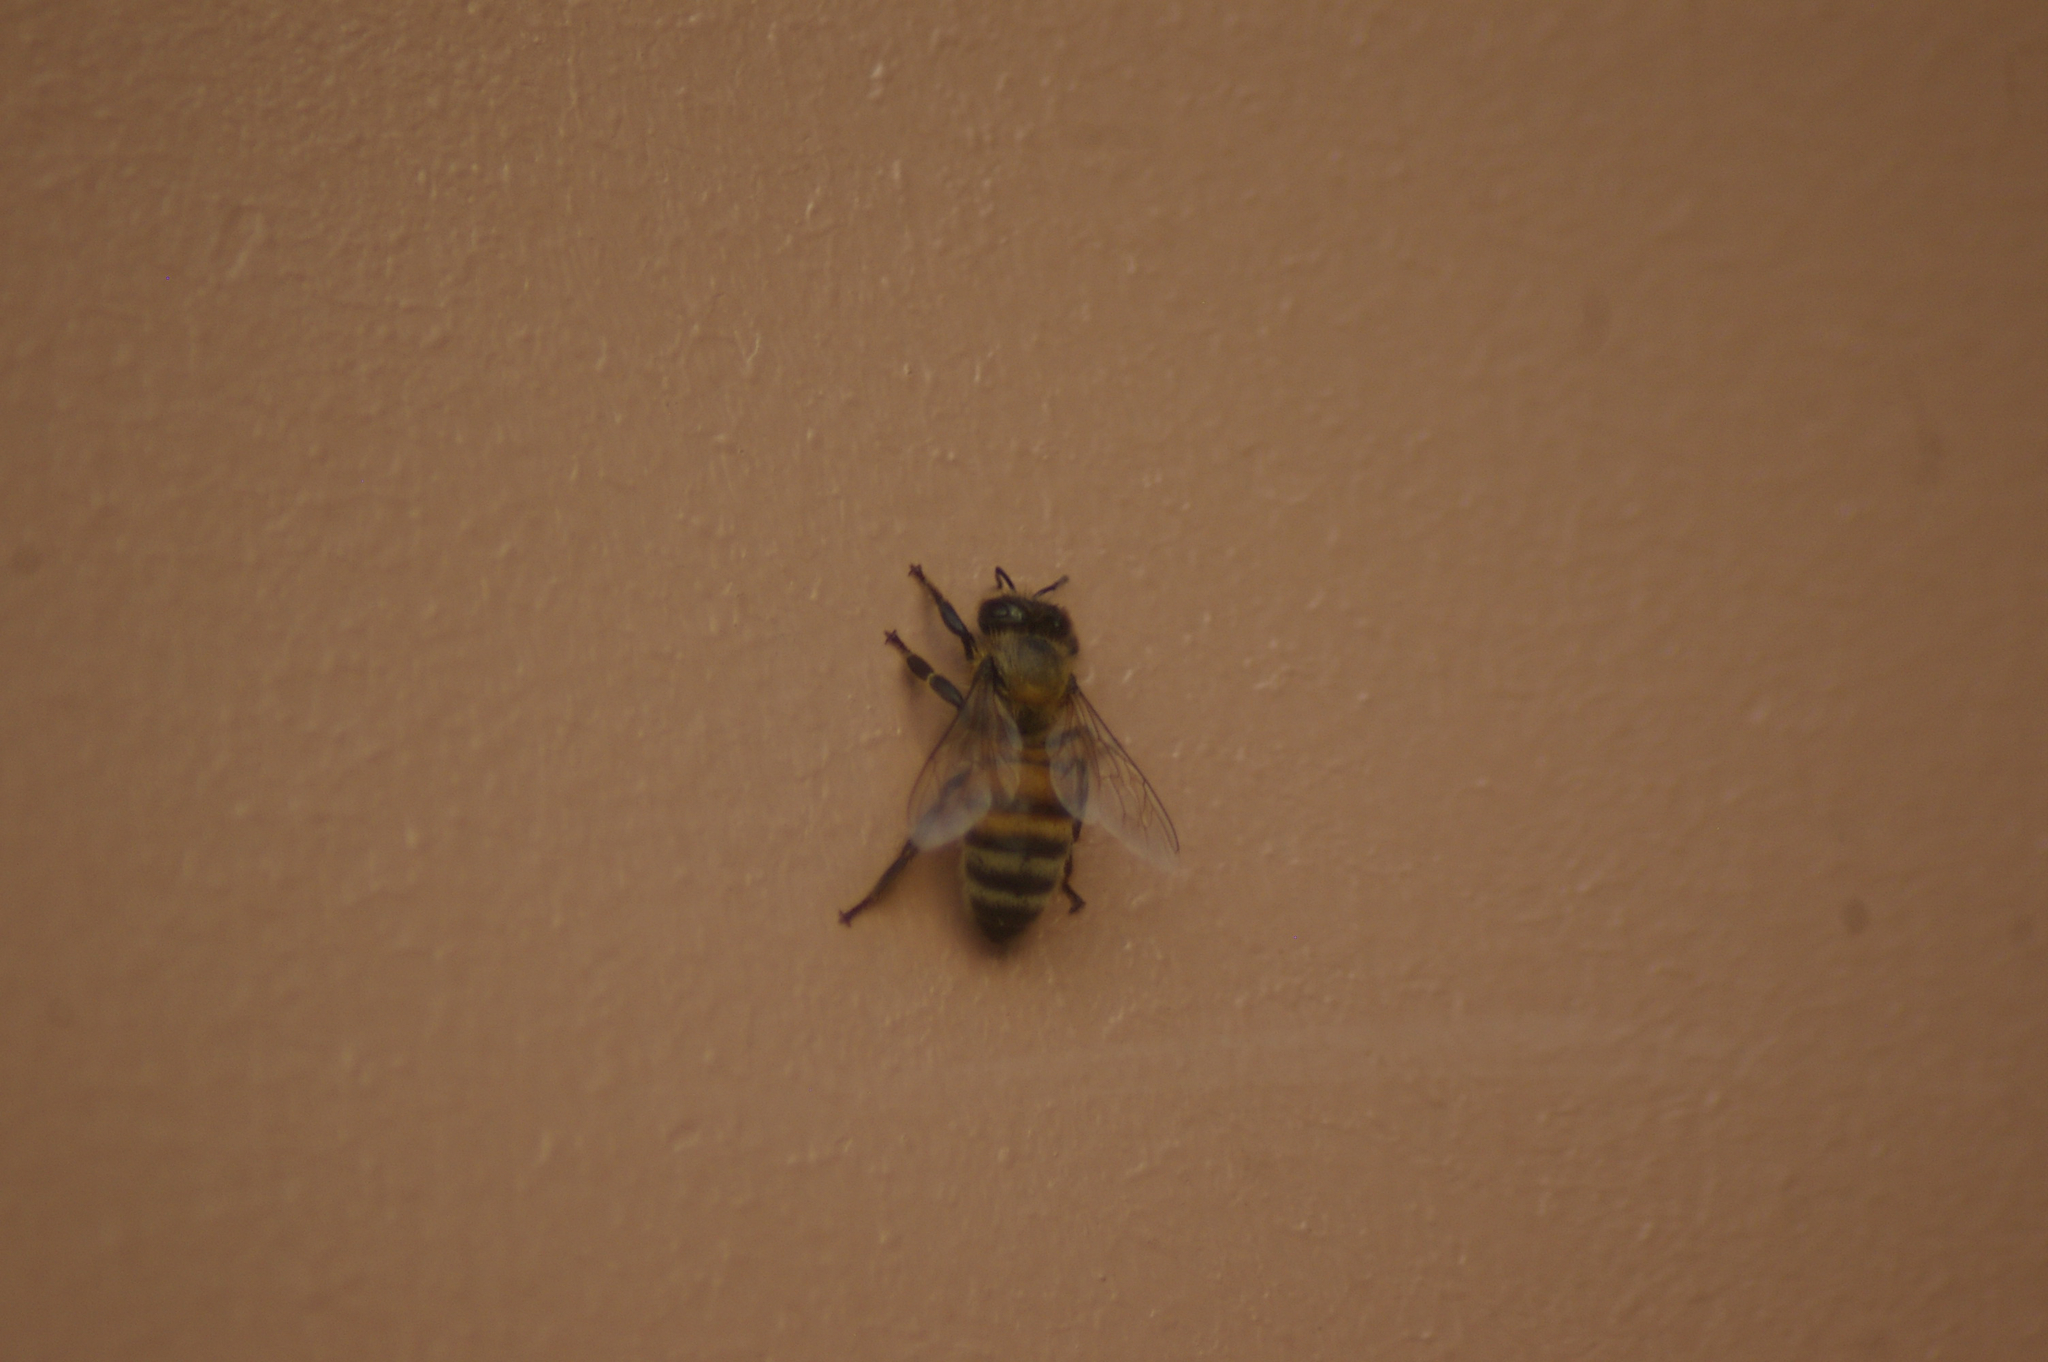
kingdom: Animalia
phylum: Arthropoda
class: Insecta
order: Hymenoptera
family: Apidae
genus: Apis
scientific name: Apis mellifera
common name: Honey bee
